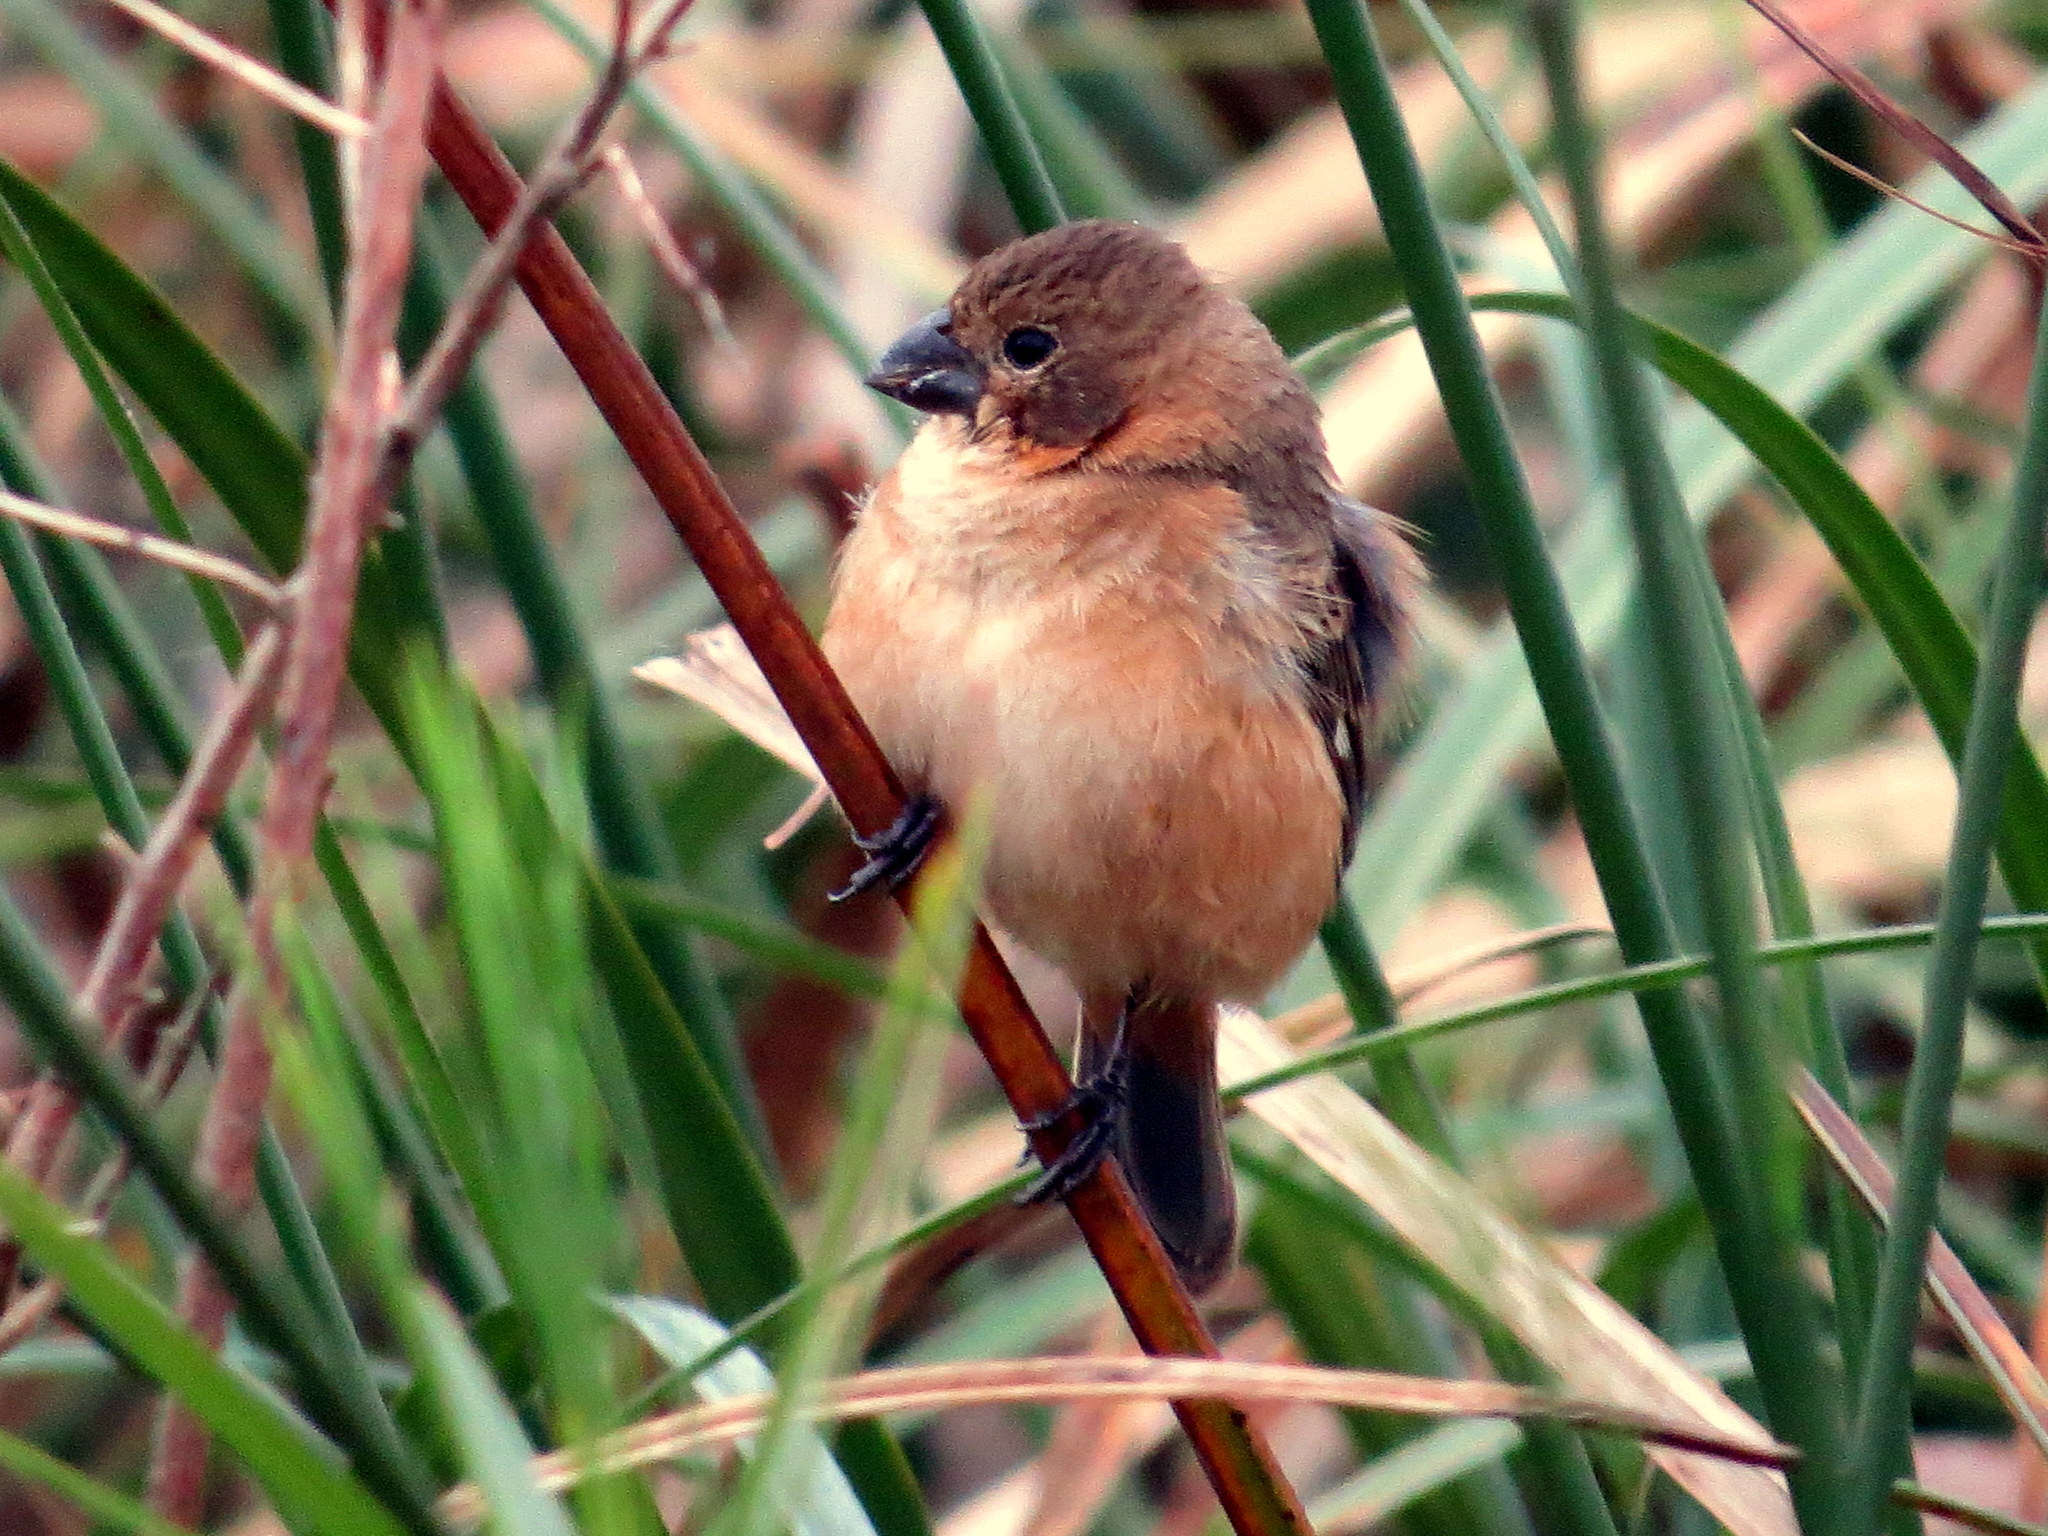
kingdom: Animalia
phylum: Chordata
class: Aves
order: Passeriformes
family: Thraupidae
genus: Sporophila
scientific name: Sporophila collaris
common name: Rusty-collared seedeater
